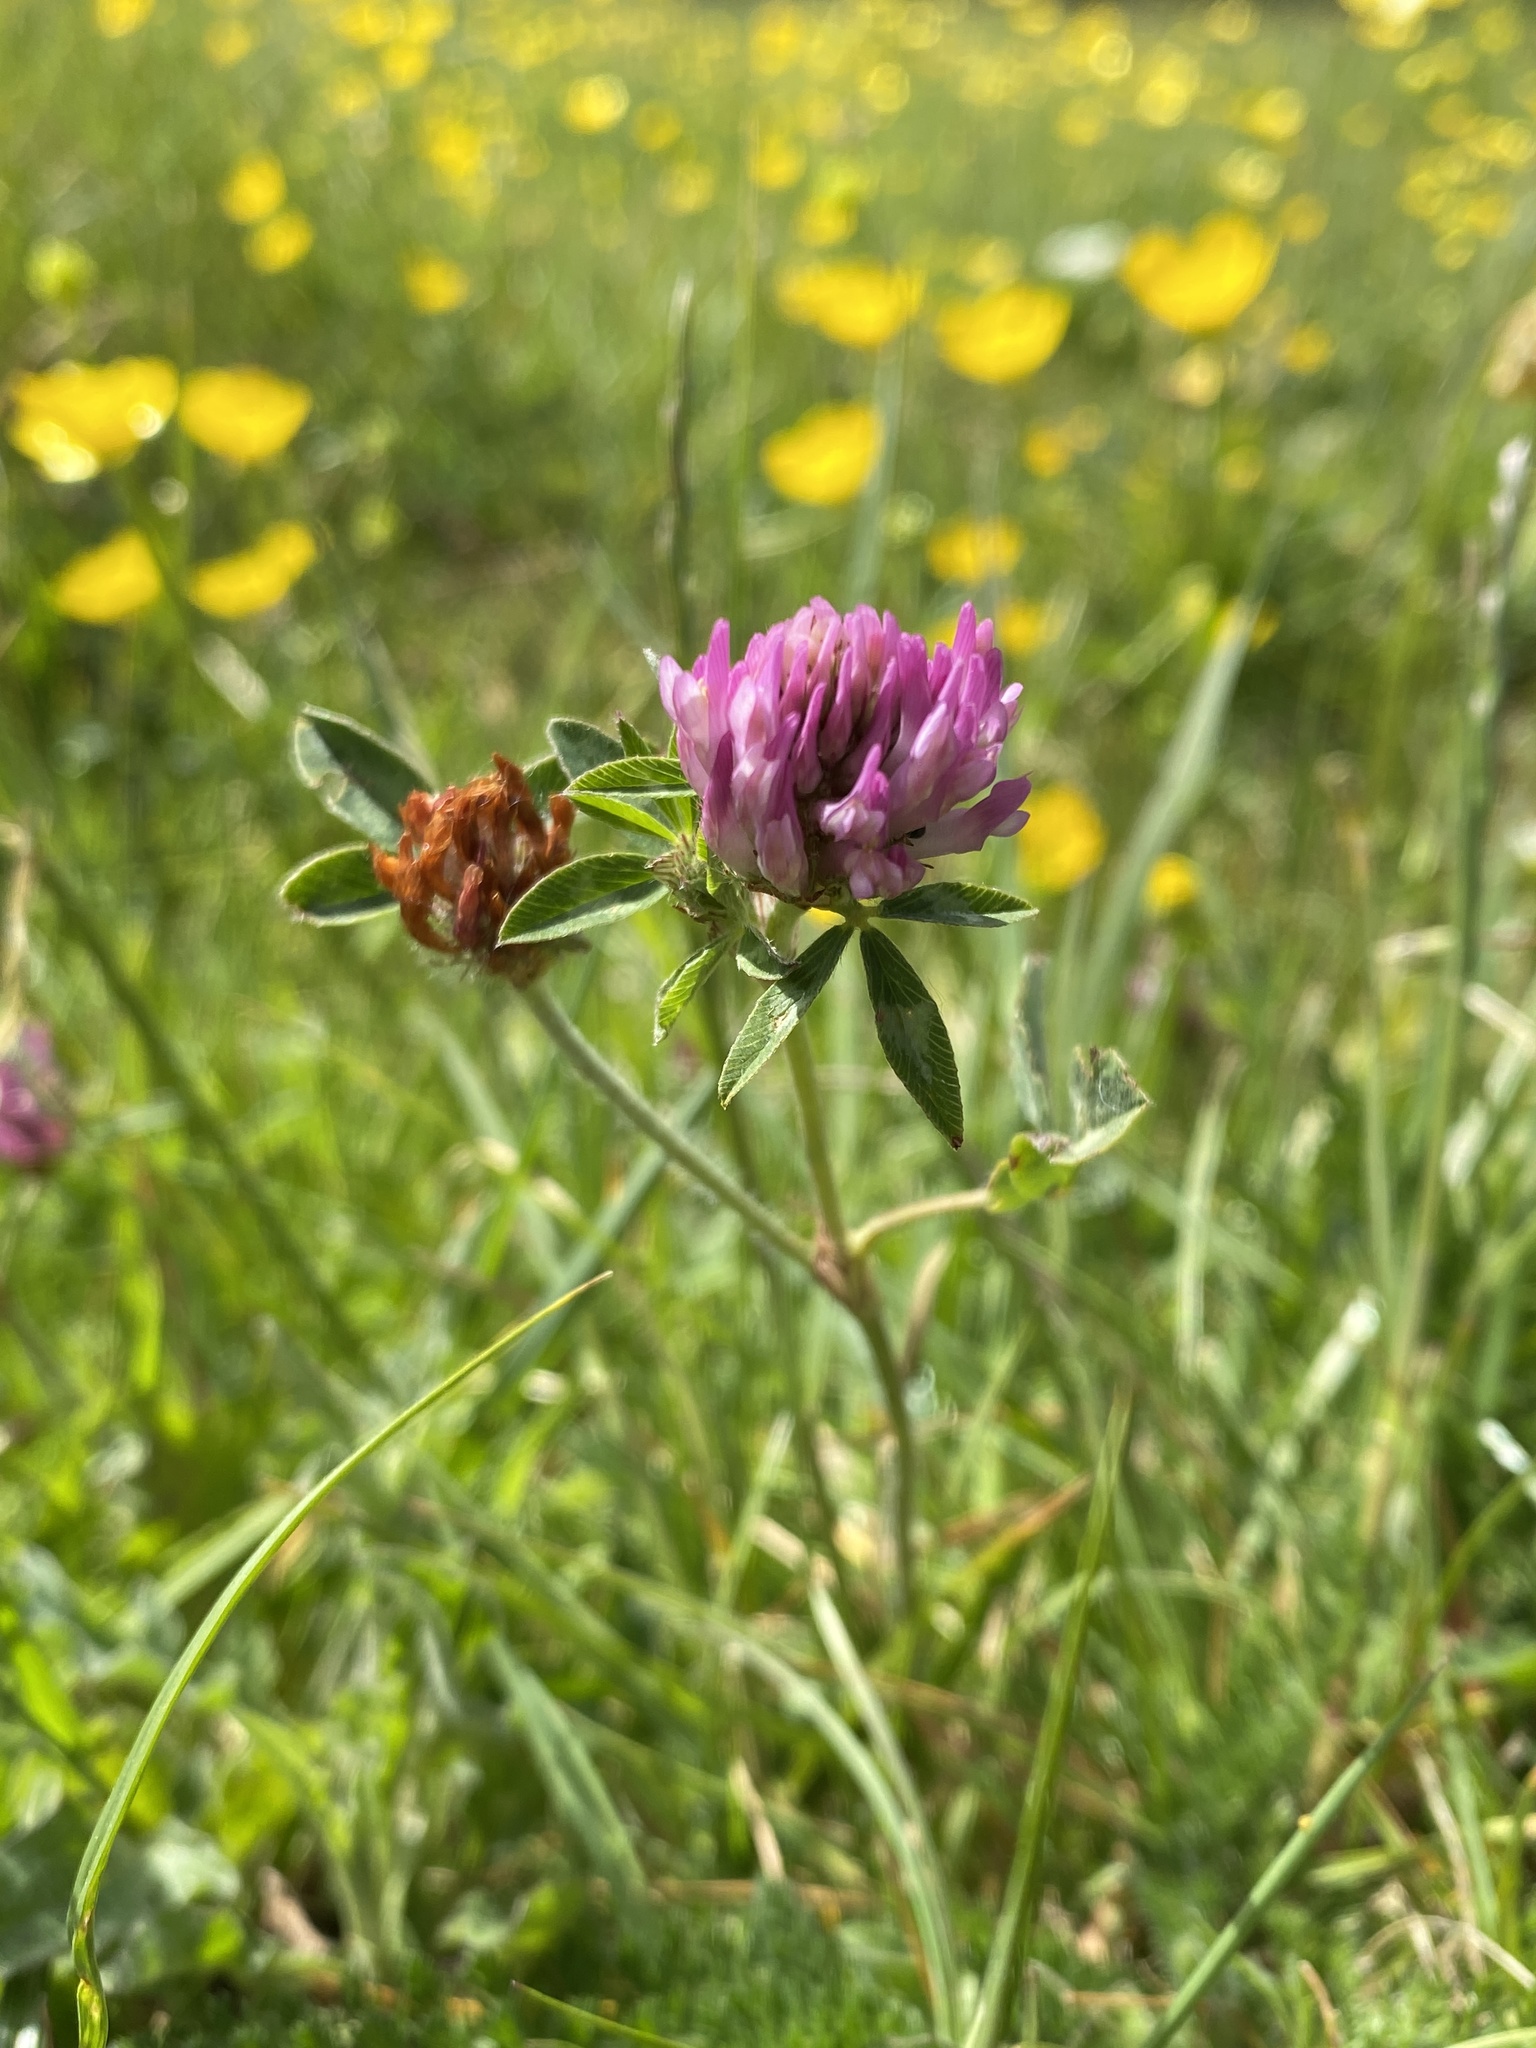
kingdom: Plantae
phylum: Tracheophyta
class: Magnoliopsida
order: Fabales
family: Fabaceae
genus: Trifolium
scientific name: Trifolium pratense
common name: Red clover
